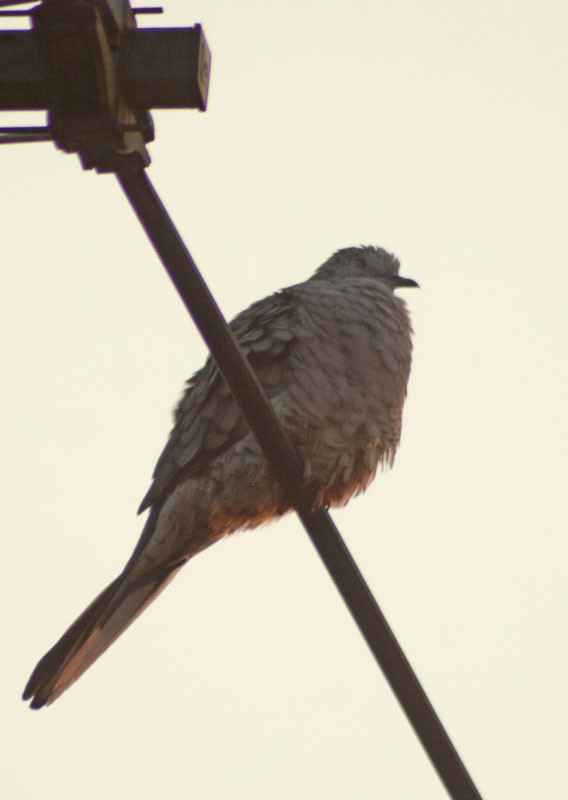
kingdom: Animalia
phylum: Chordata
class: Aves
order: Columbiformes
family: Columbidae
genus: Columbina
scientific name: Columbina inca
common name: Inca dove
